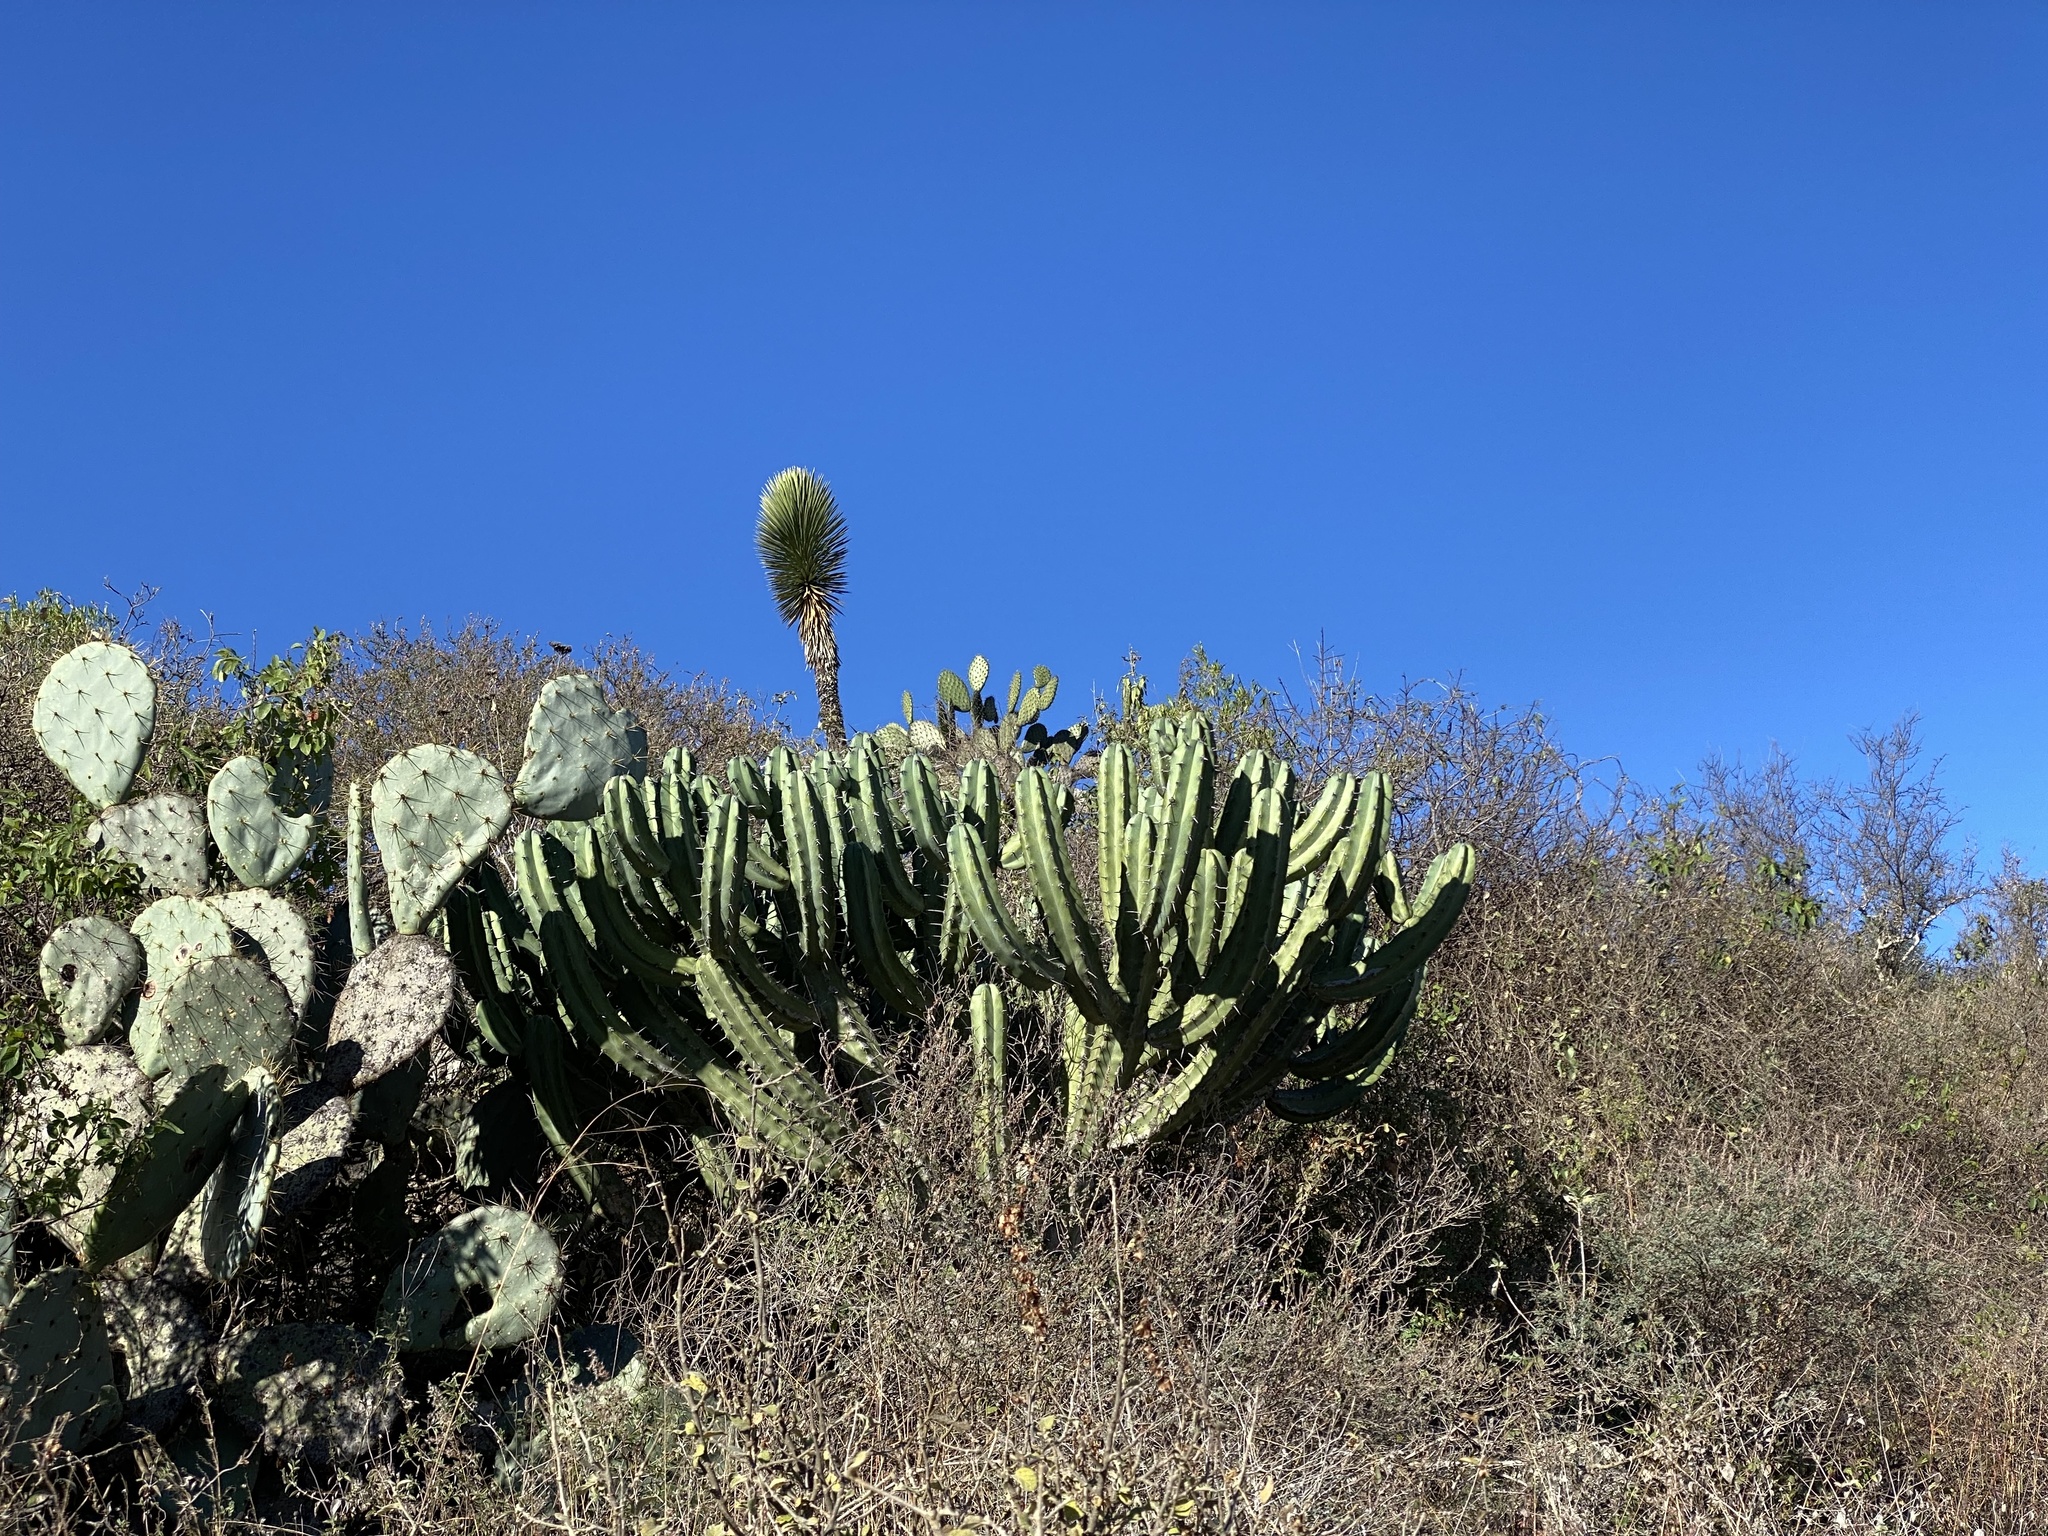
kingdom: Plantae
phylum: Tracheophyta
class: Magnoliopsida
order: Caryophyllales
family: Cactaceae
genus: Myrtillocactus
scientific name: Myrtillocactus geometrizans
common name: Bilberry cactus
